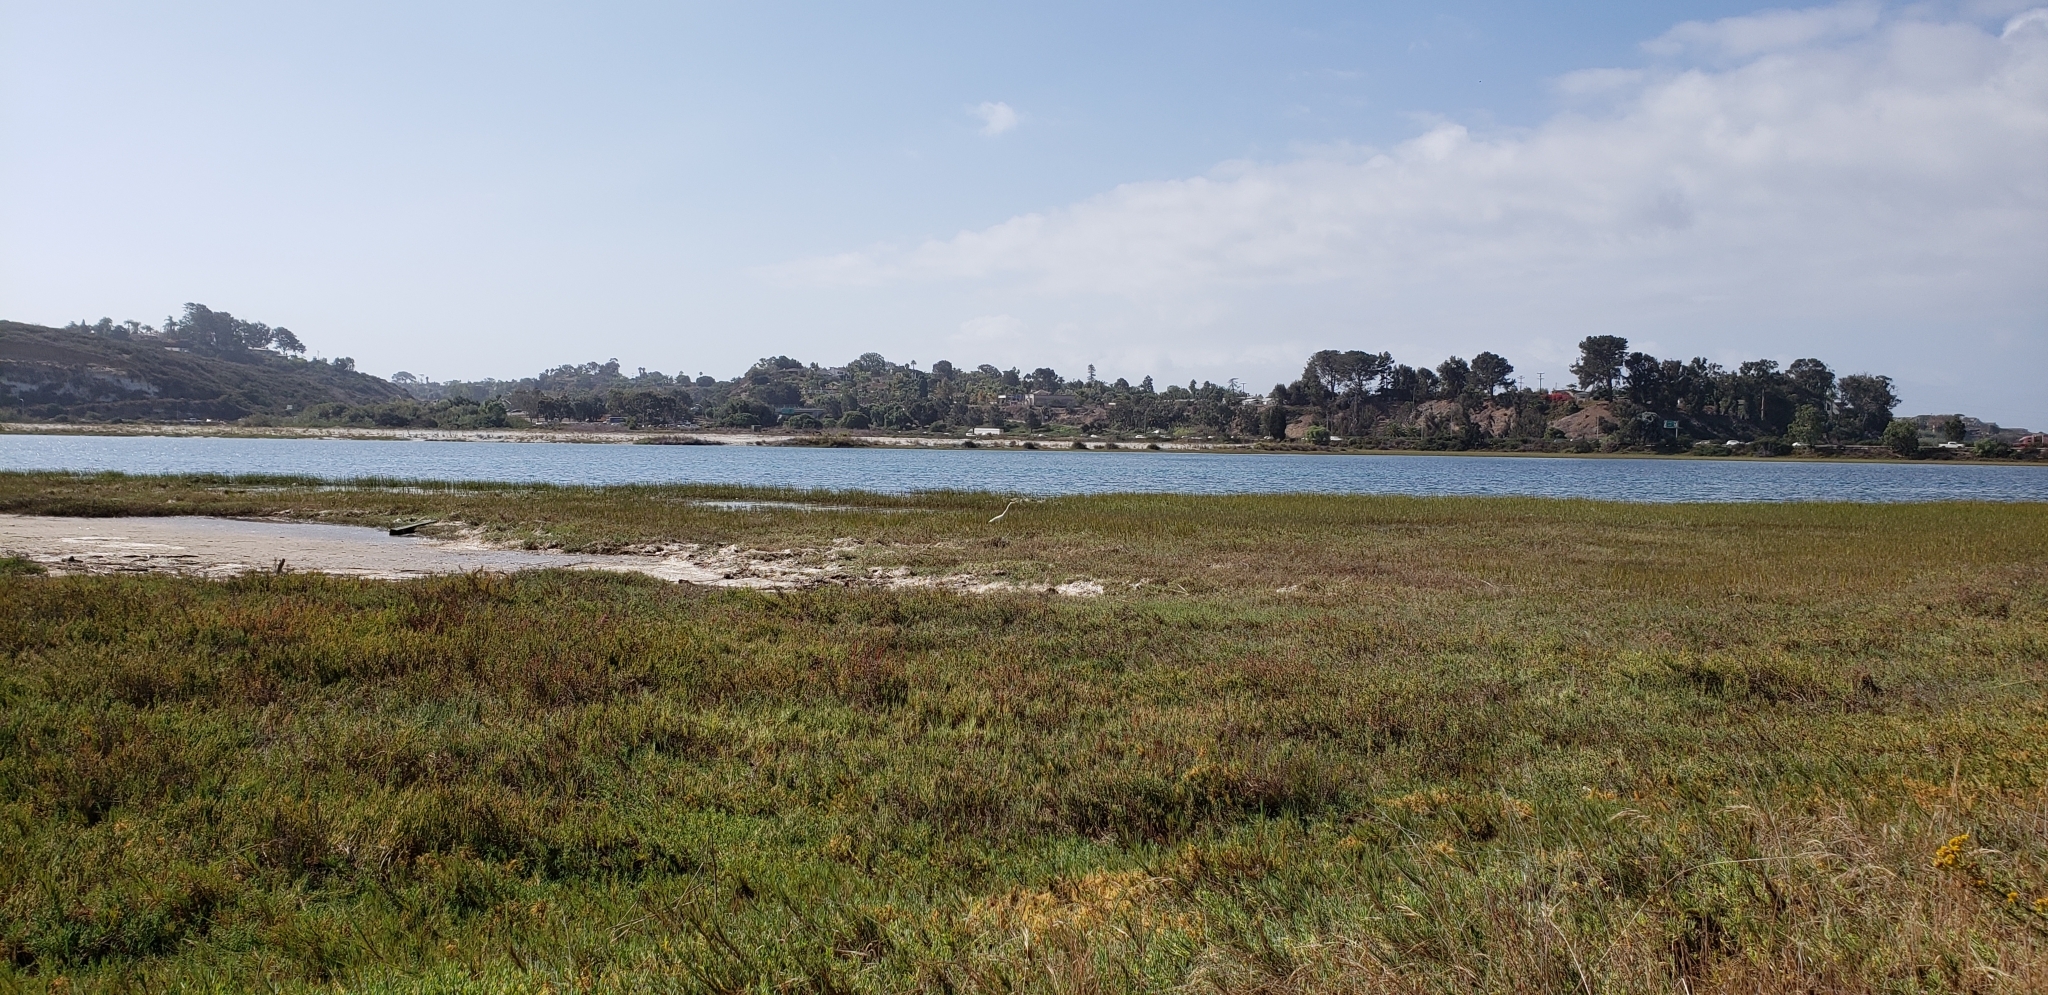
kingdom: Animalia
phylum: Chordata
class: Aves
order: Pelecaniformes
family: Ardeidae
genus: Ardea
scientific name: Ardea alba
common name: Great egret
